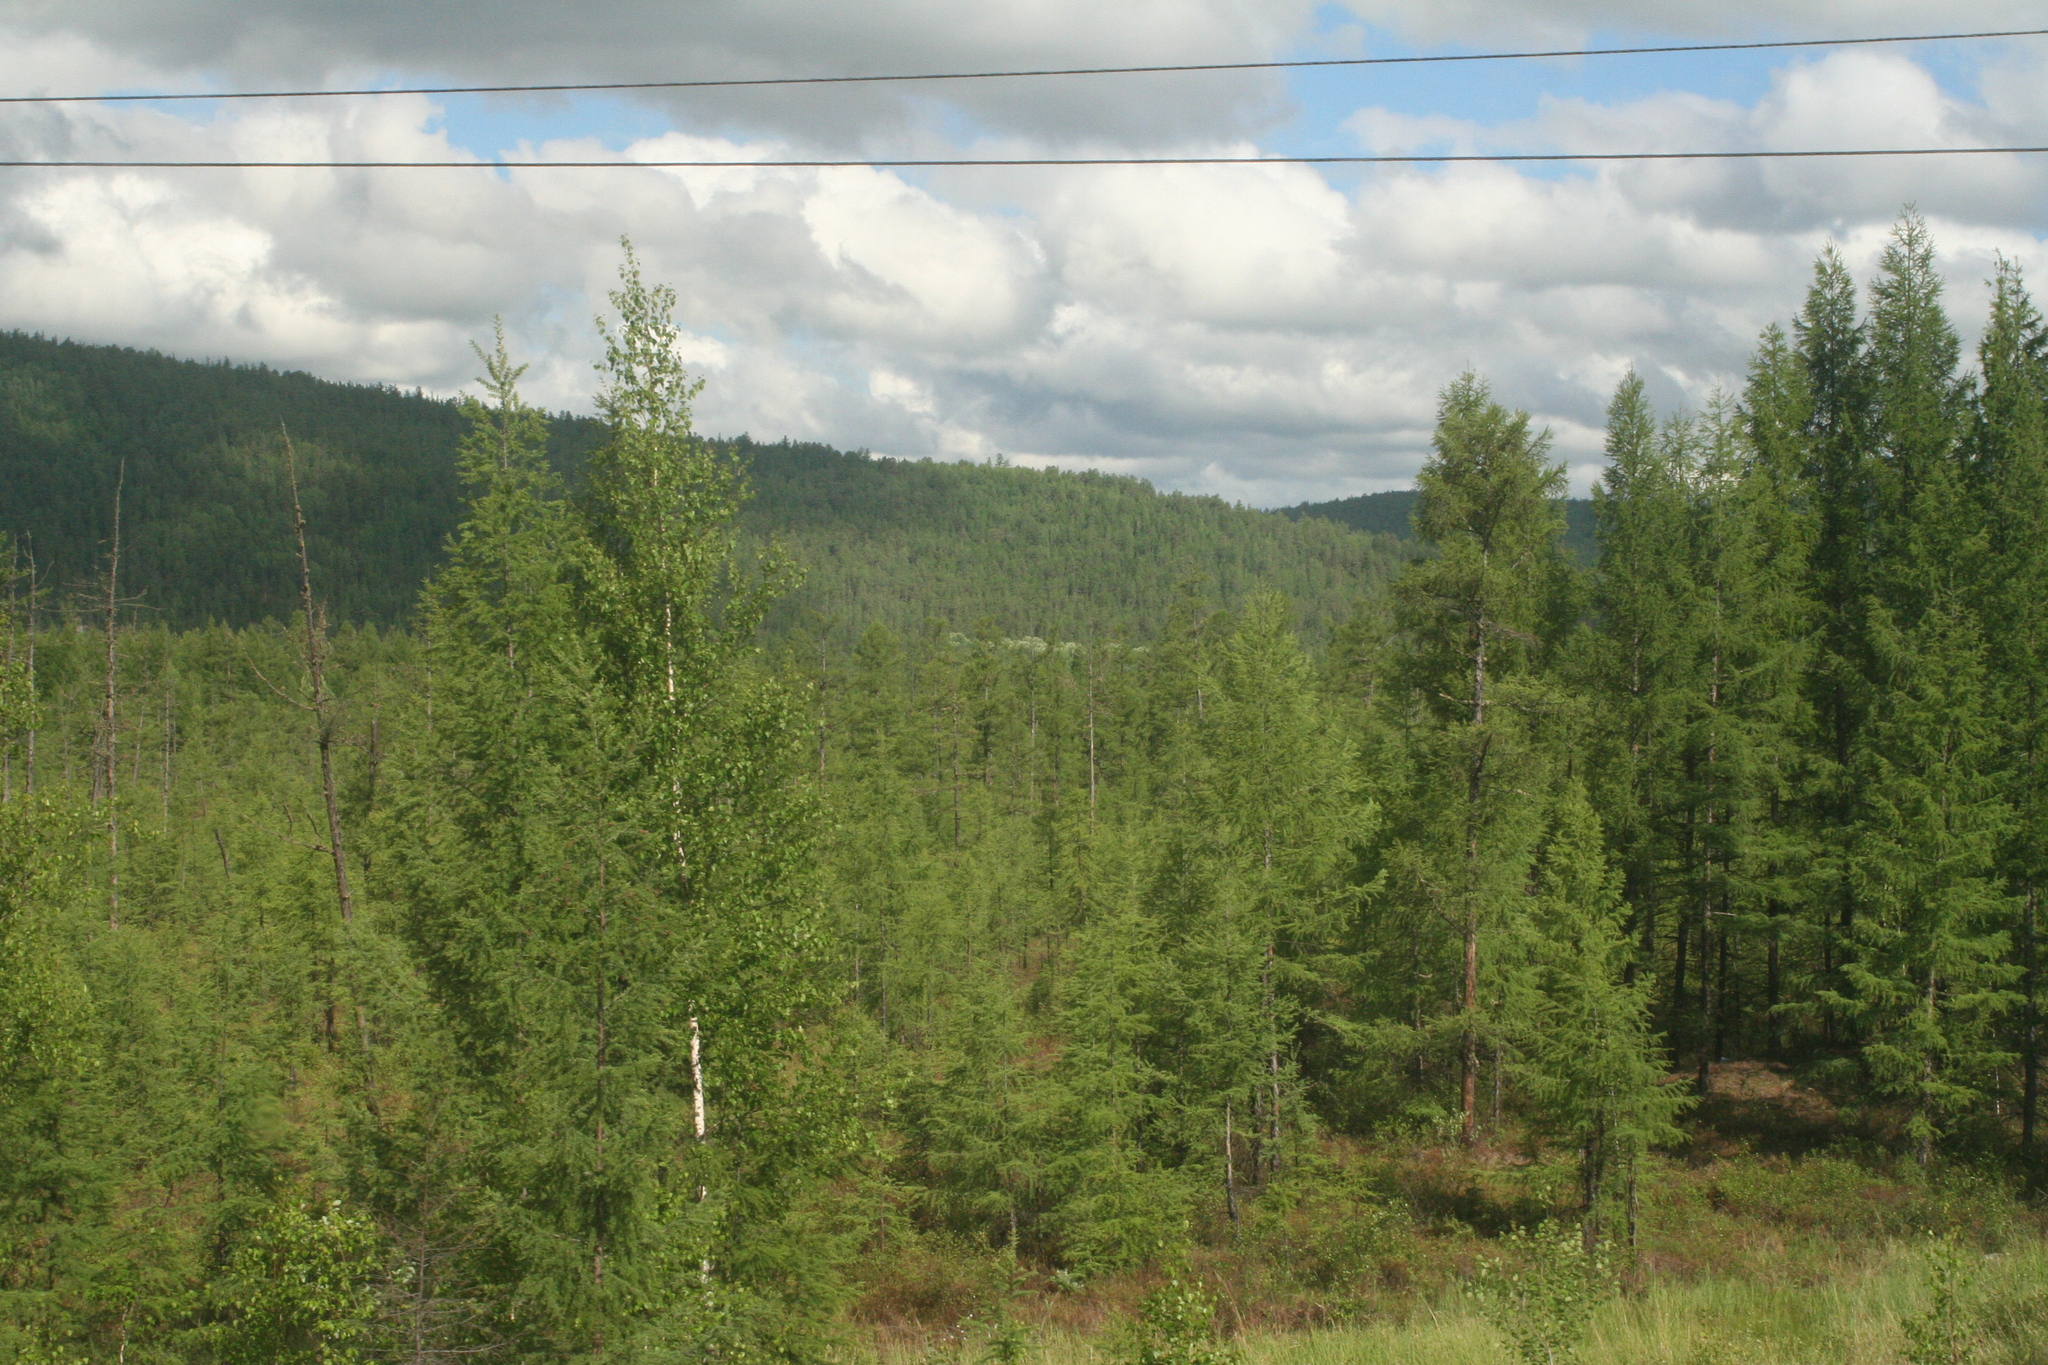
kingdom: Plantae
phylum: Tracheophyta
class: Pinopsida
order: Pinales
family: Pinaceae
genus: Larix
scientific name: Larix gmelinii
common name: Dahurian larch
